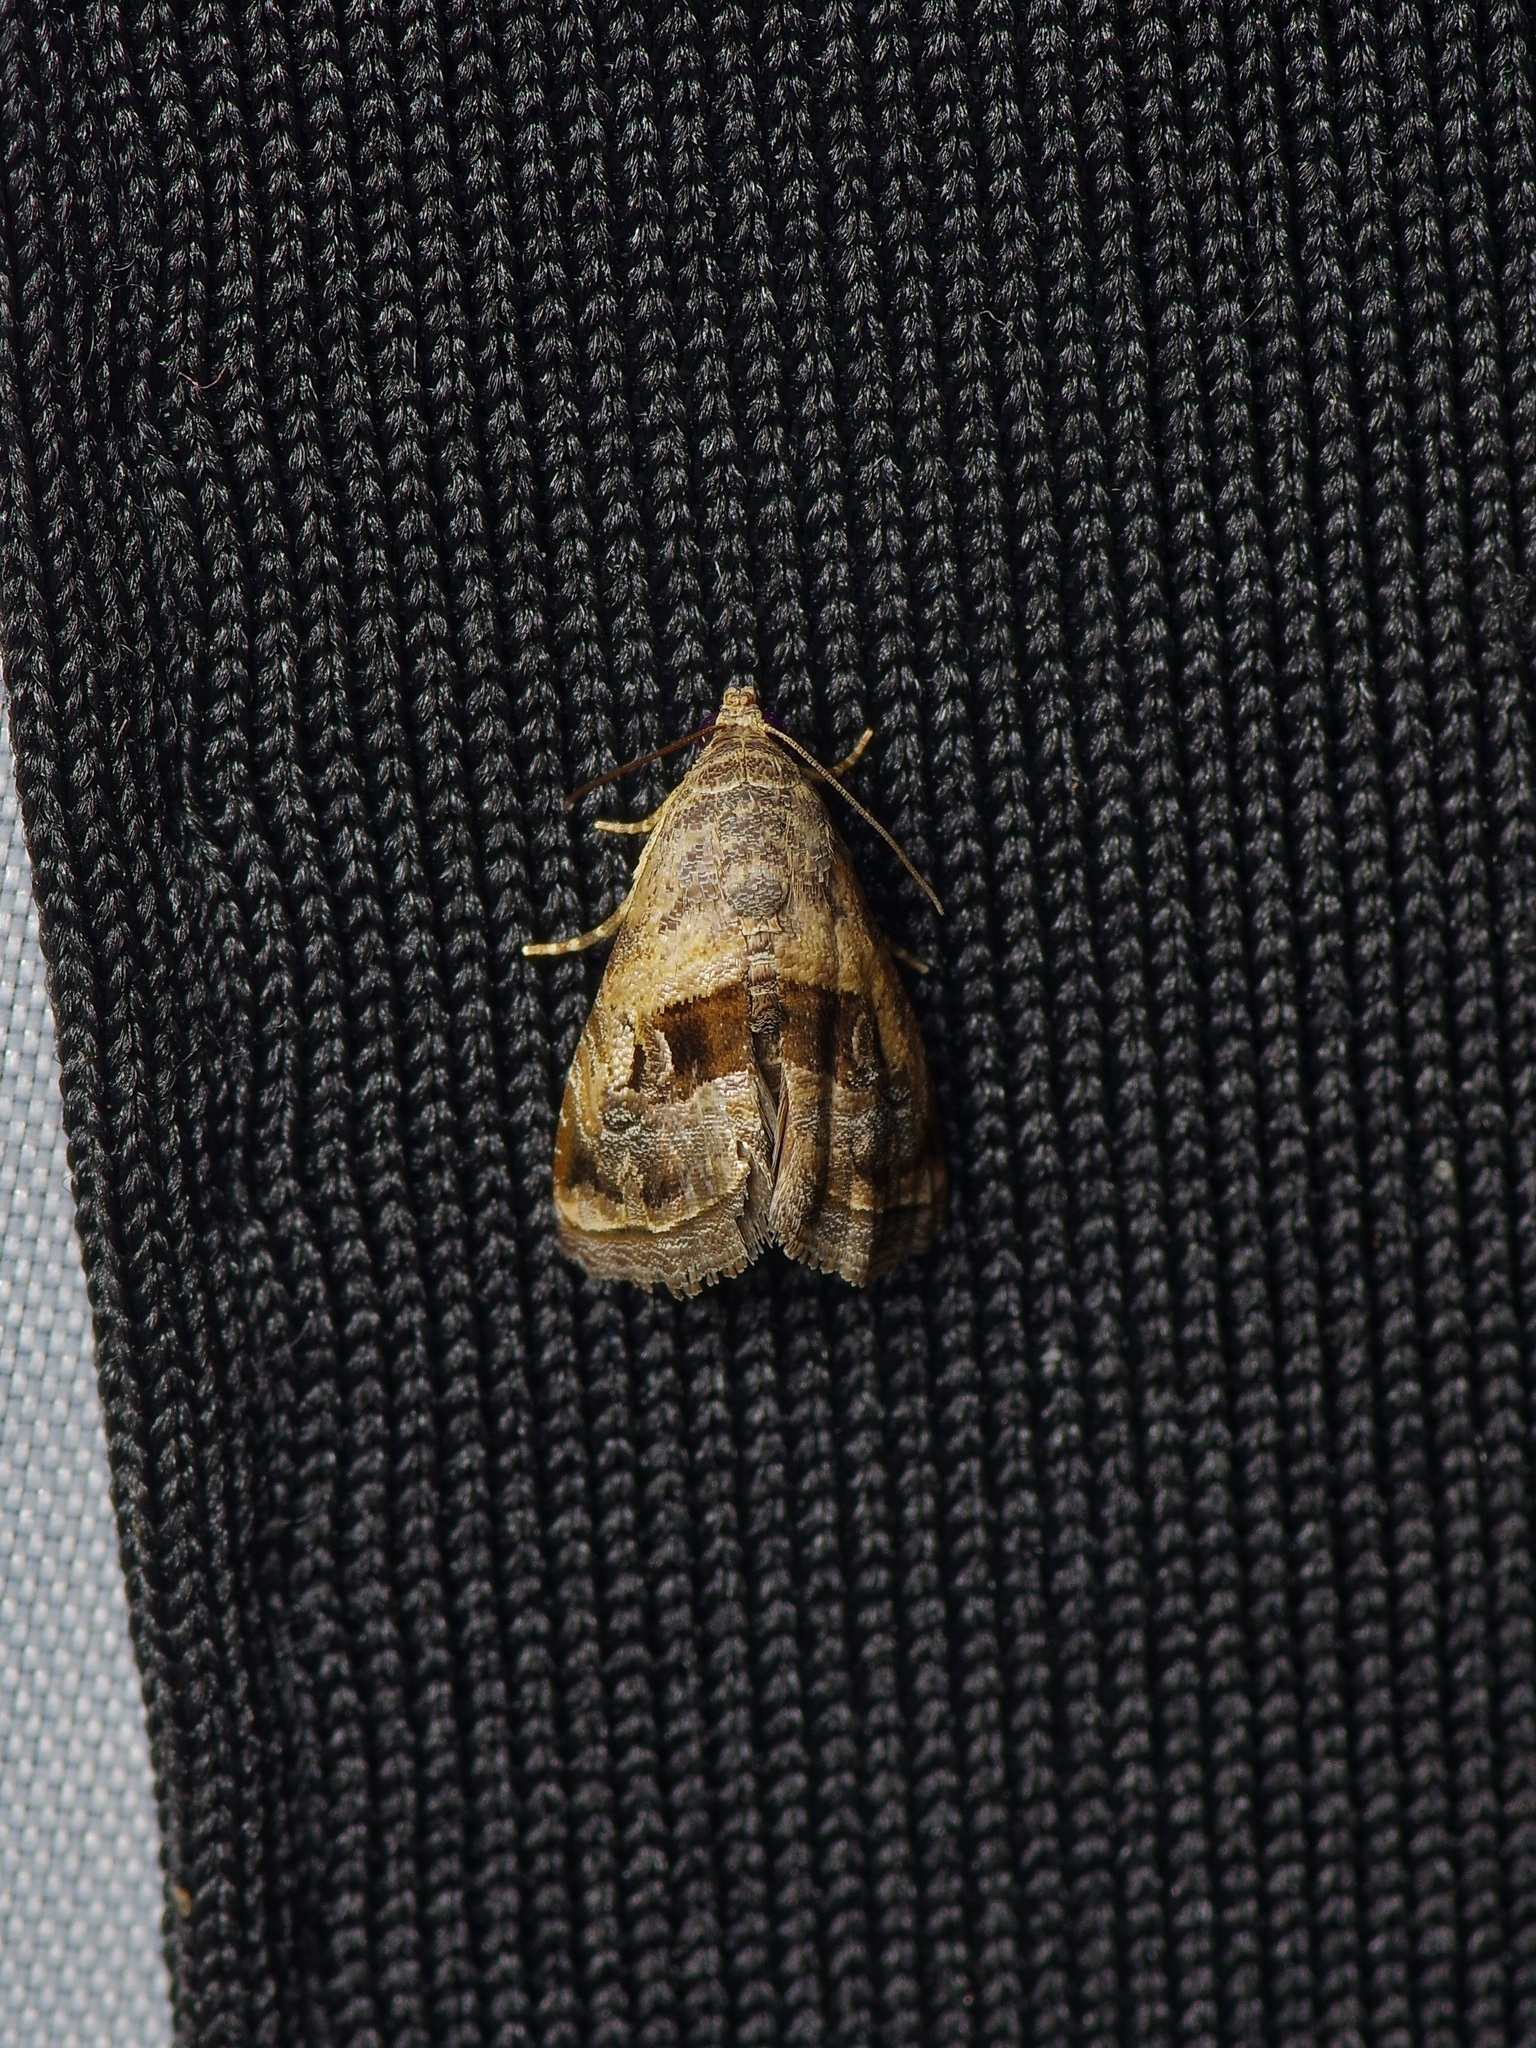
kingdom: Animalia
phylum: Arthropoda
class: Insecta
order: Lepidoptera
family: Noctuidae
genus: Tripudia
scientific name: Tripudia quadrifera
